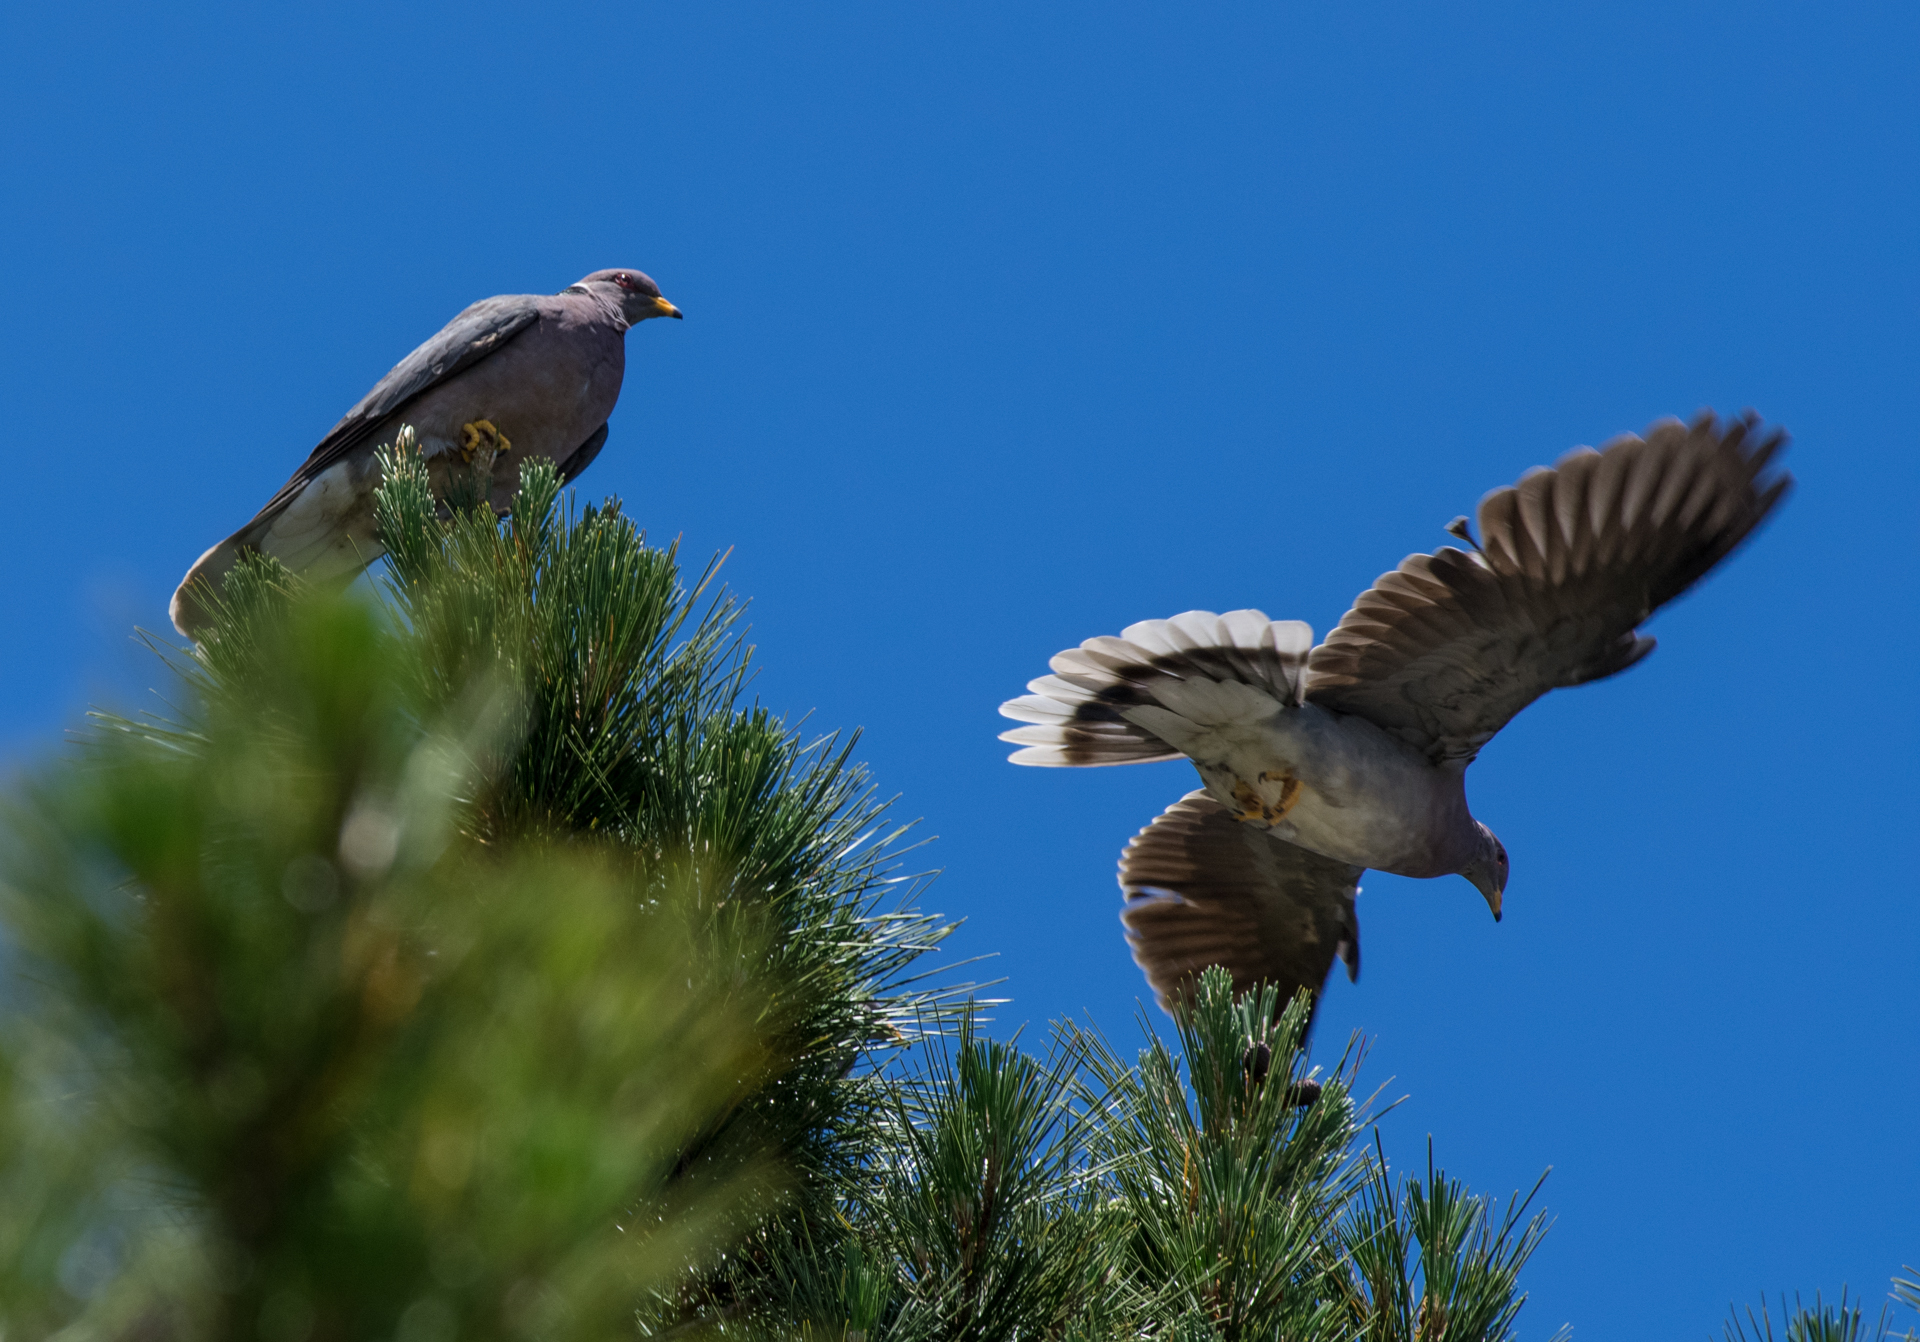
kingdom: Animalia
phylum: Chordata
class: Aves
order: Columbiformes
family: Columbidae
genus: Patagioenas
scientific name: Patagioenas fasciata
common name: Band-tailed pigeon
